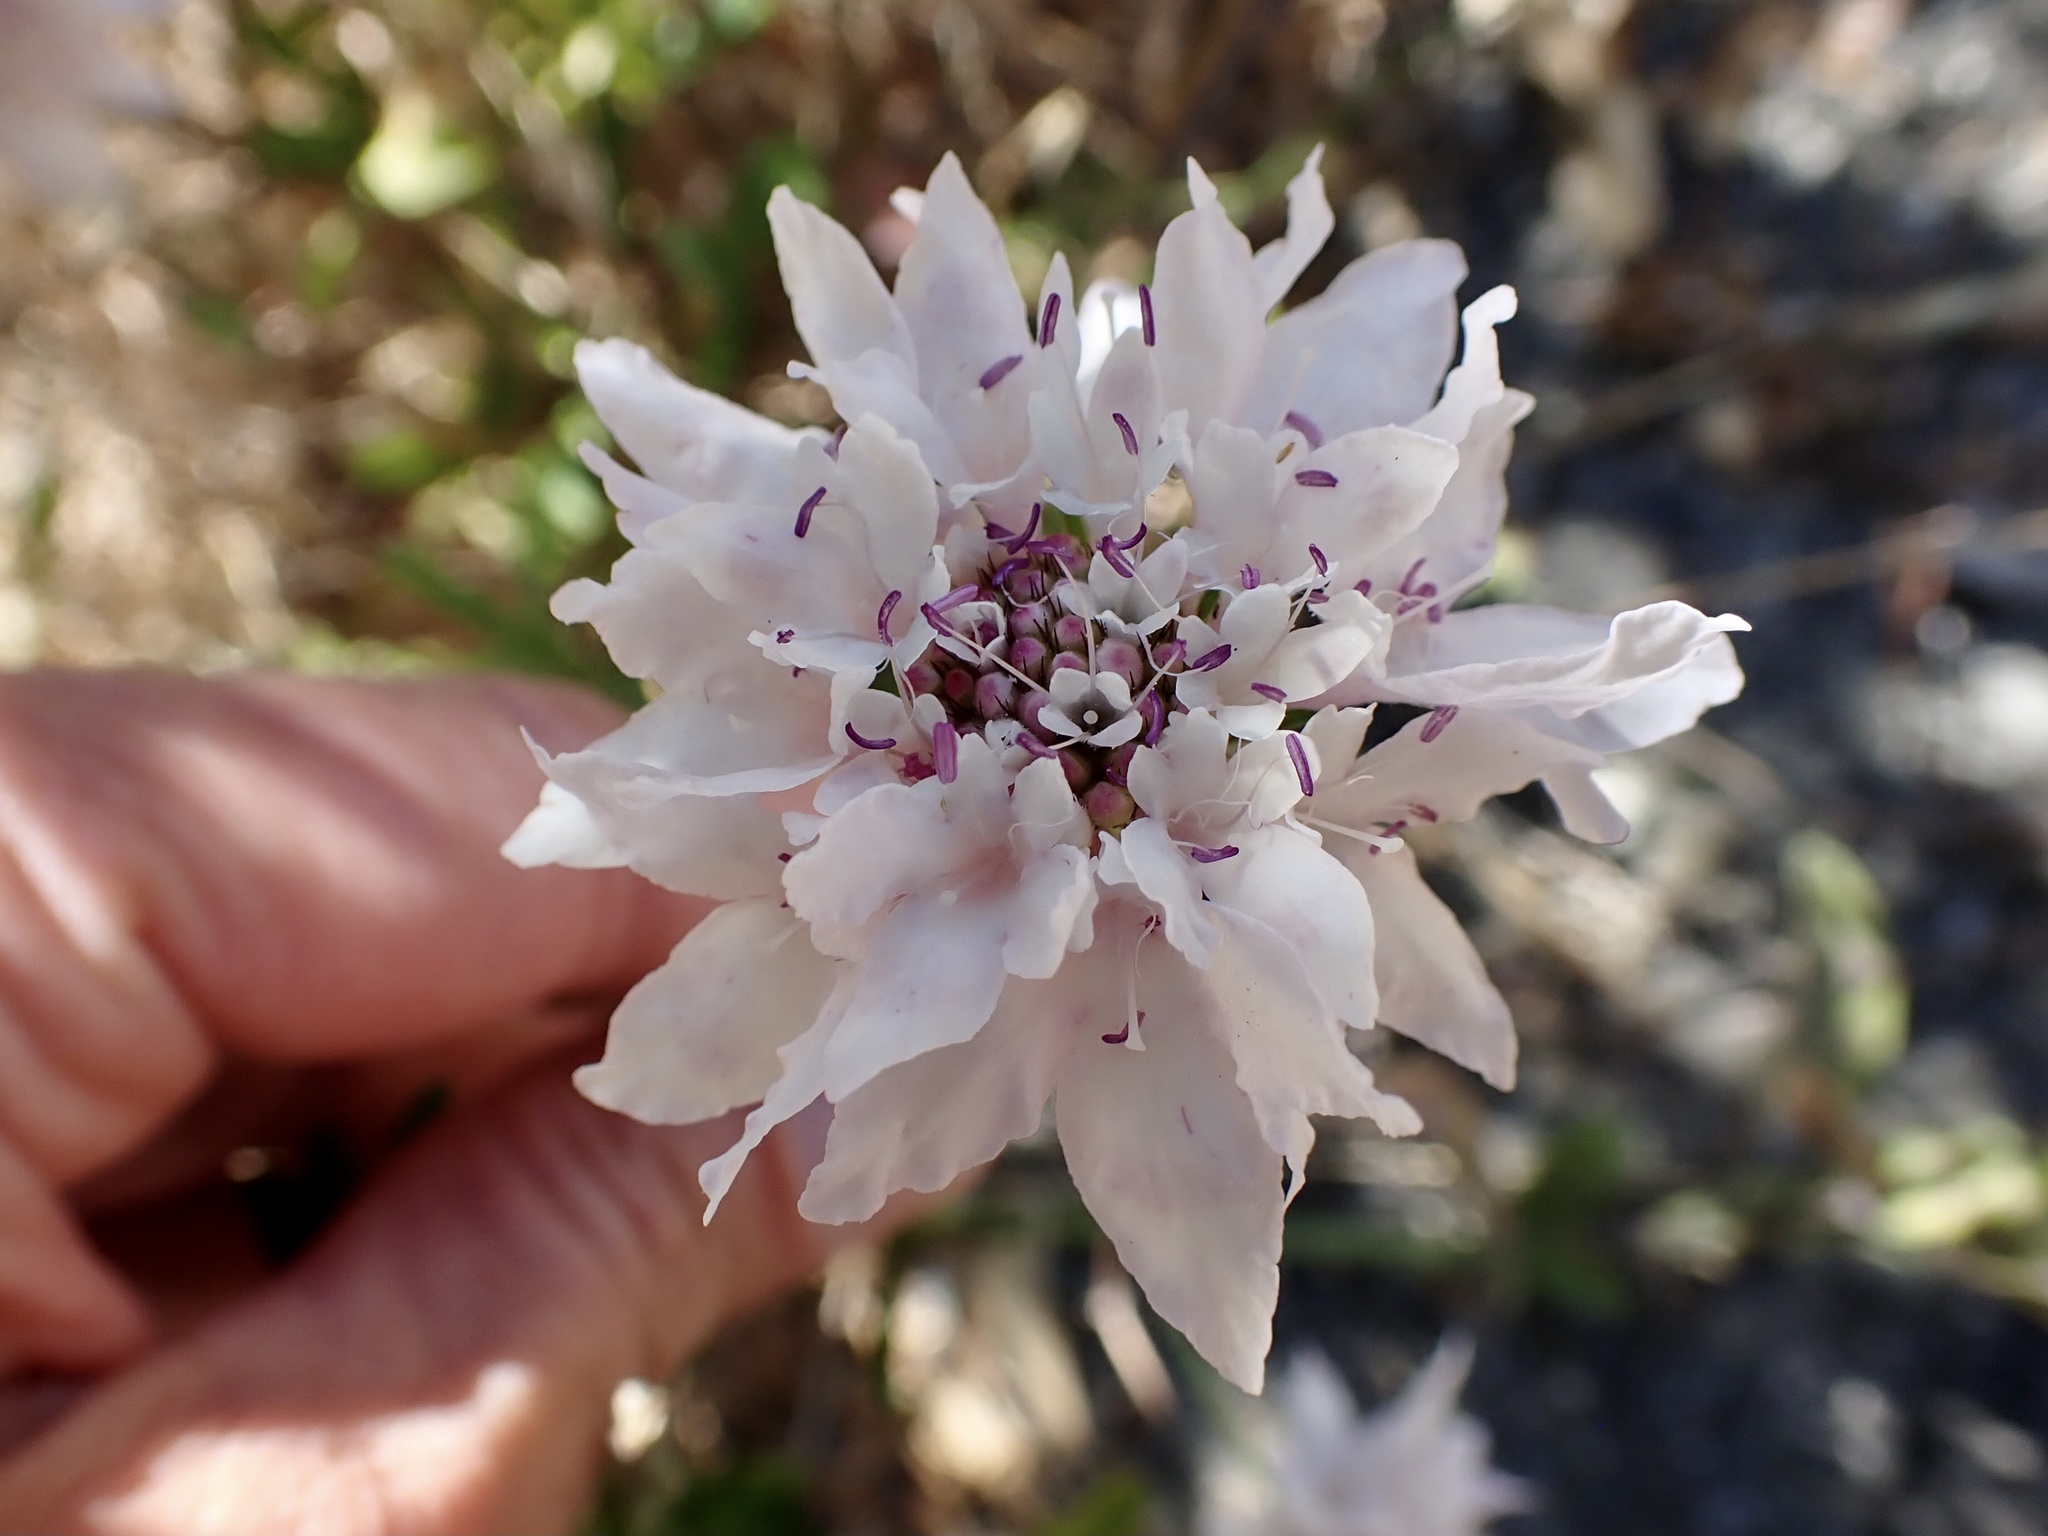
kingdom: Plantae
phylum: Tracheophyta
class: Magnoliopsida
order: Dipsacales
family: Caprifoliaceae
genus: Sixalix
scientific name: Sixalix atropurpurea
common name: Sweet scabious
